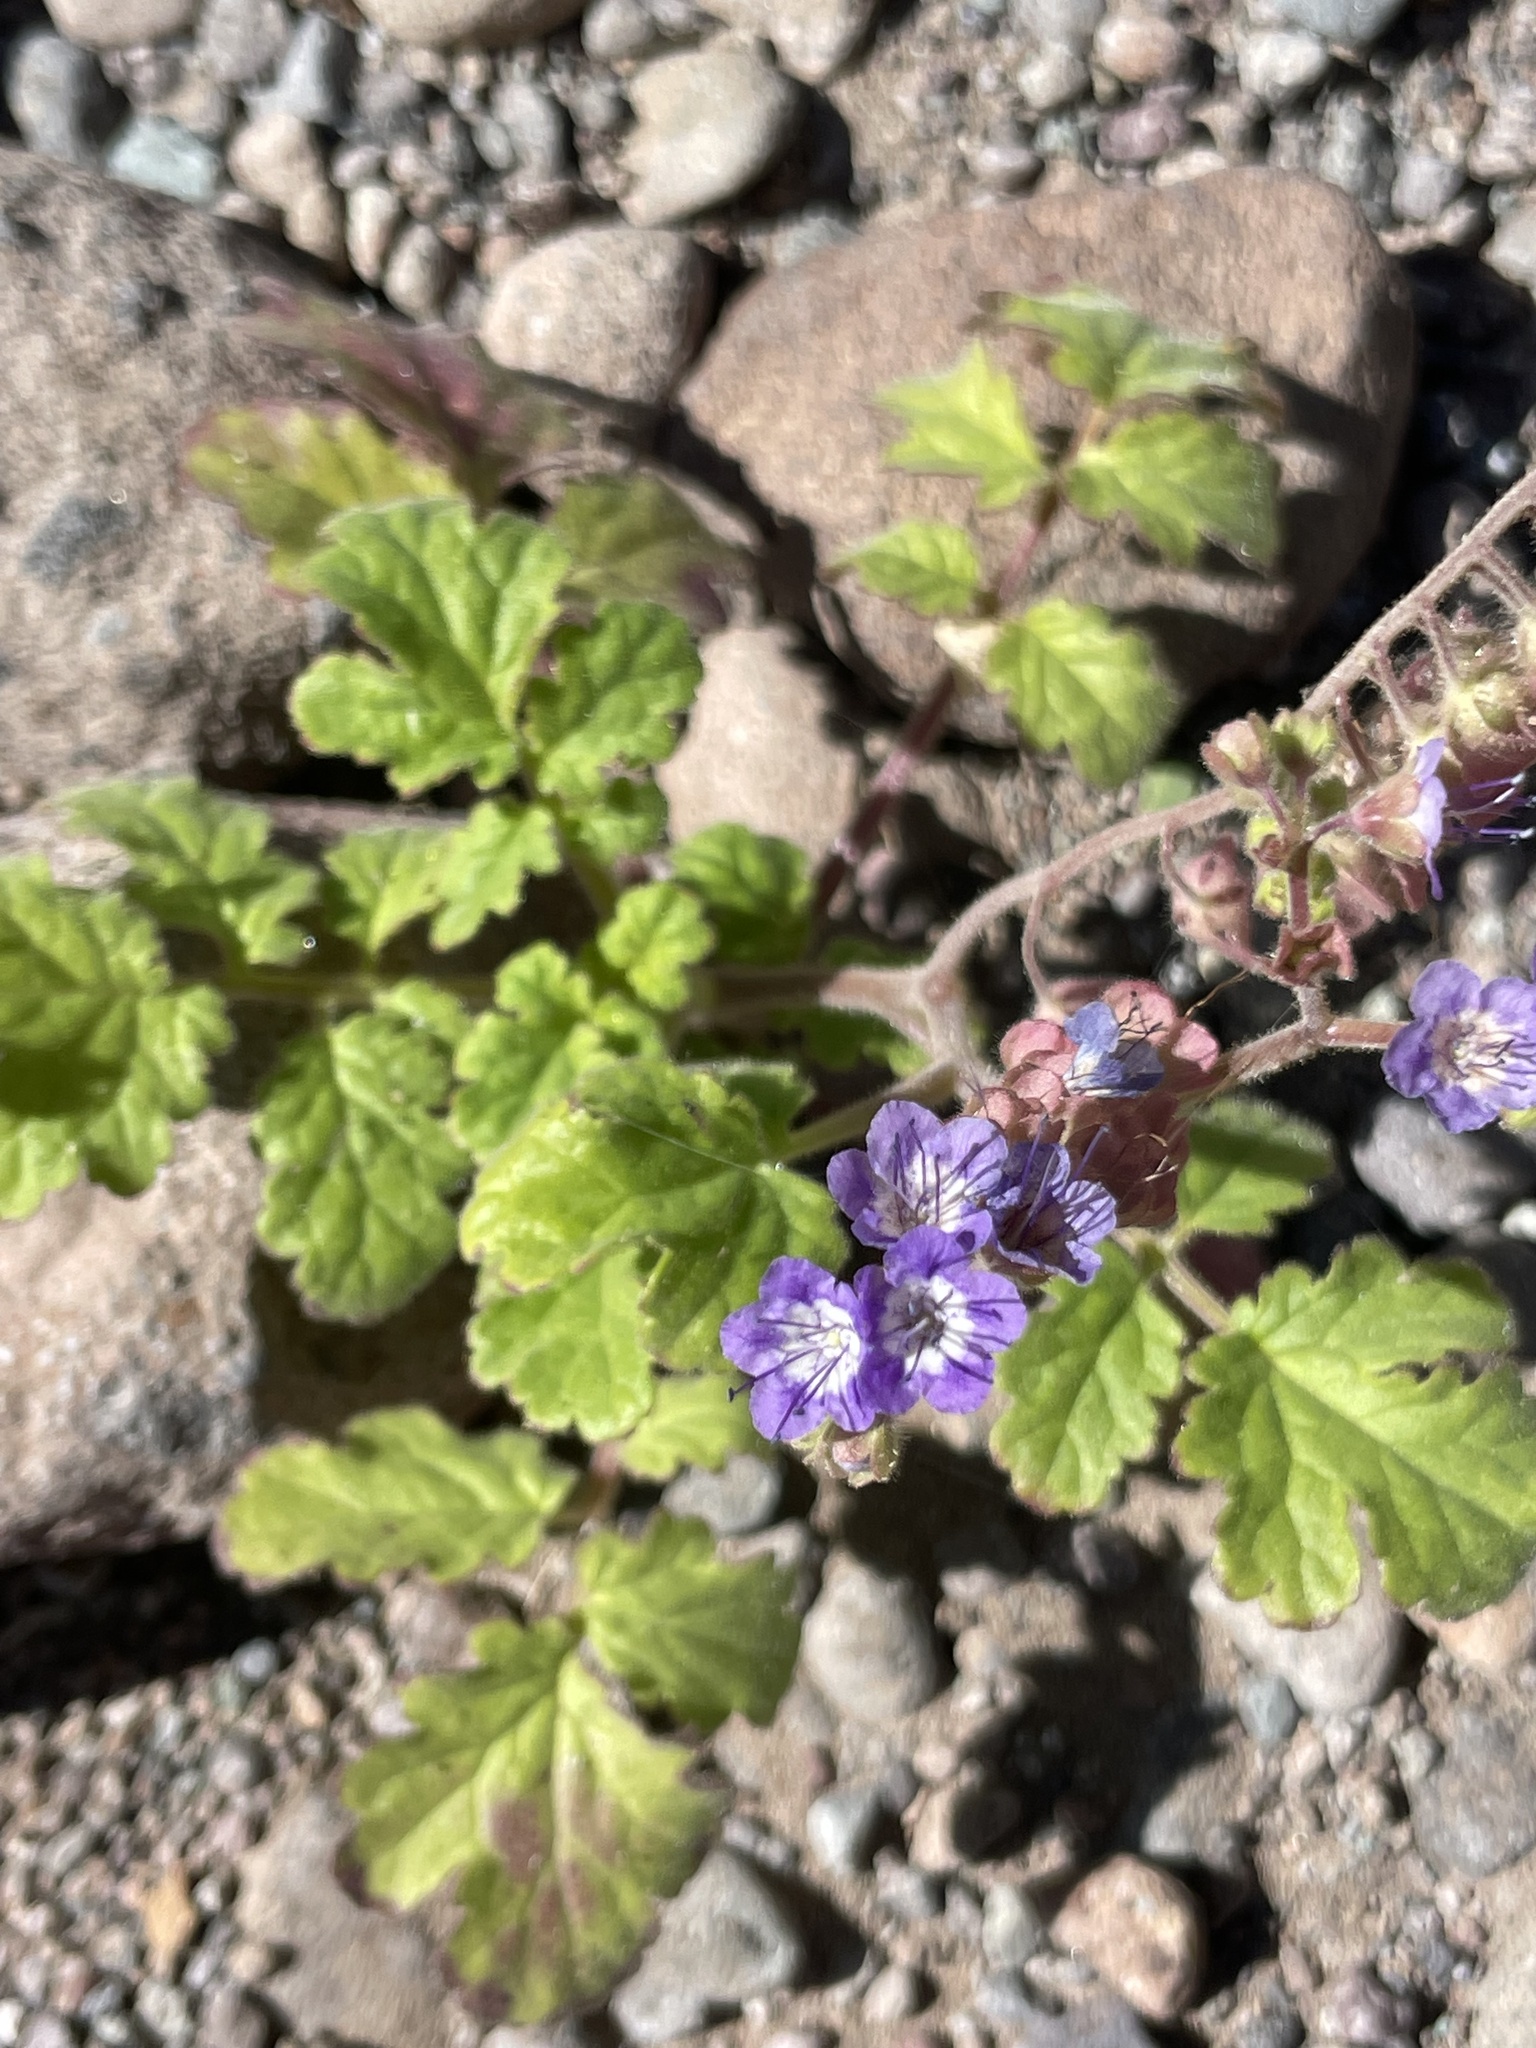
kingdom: Plantae
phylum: Tracheophyta
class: Magnoliopsida
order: Boraginales
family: Hydrophyllaceae
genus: Phacelia
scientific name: Phacelia scariosa
